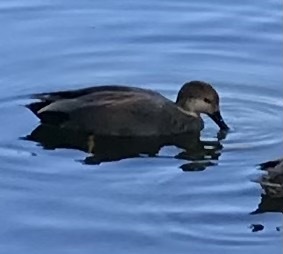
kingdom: Animalia
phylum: Chordata
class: Aves
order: Anseriformes
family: Anatidae
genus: Mareca
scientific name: Mareca strepera
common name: Gadwall
